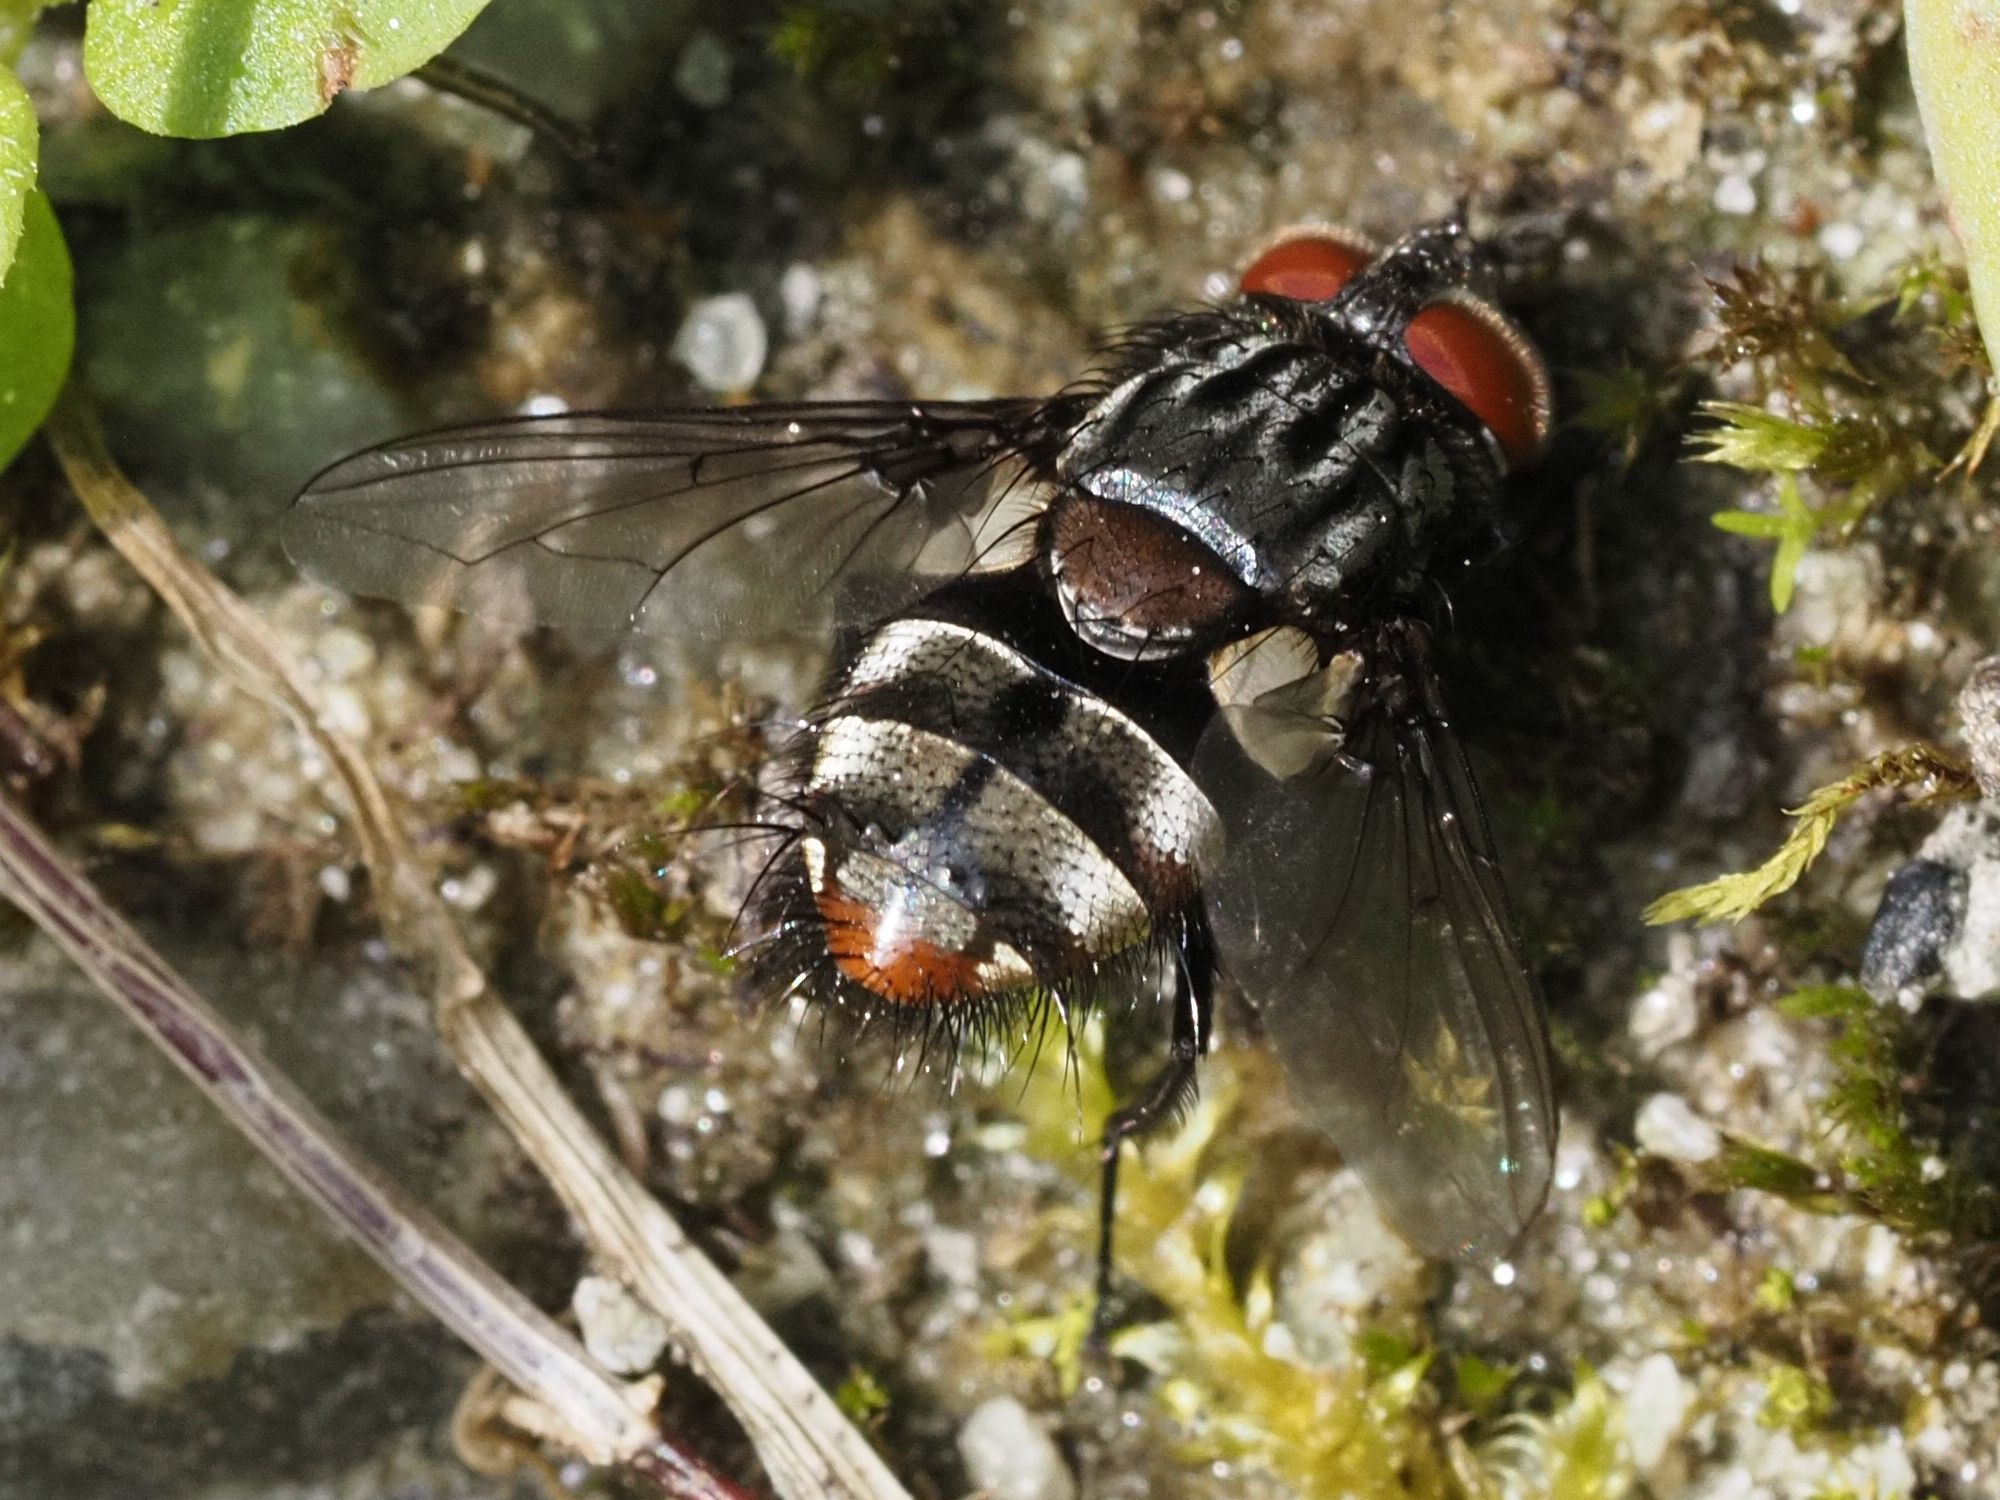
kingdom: Animalia
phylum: Arthropoda
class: Insecta
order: Diptera
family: Tachinidae
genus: Winthemia
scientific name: Winthemia quadripustulata
